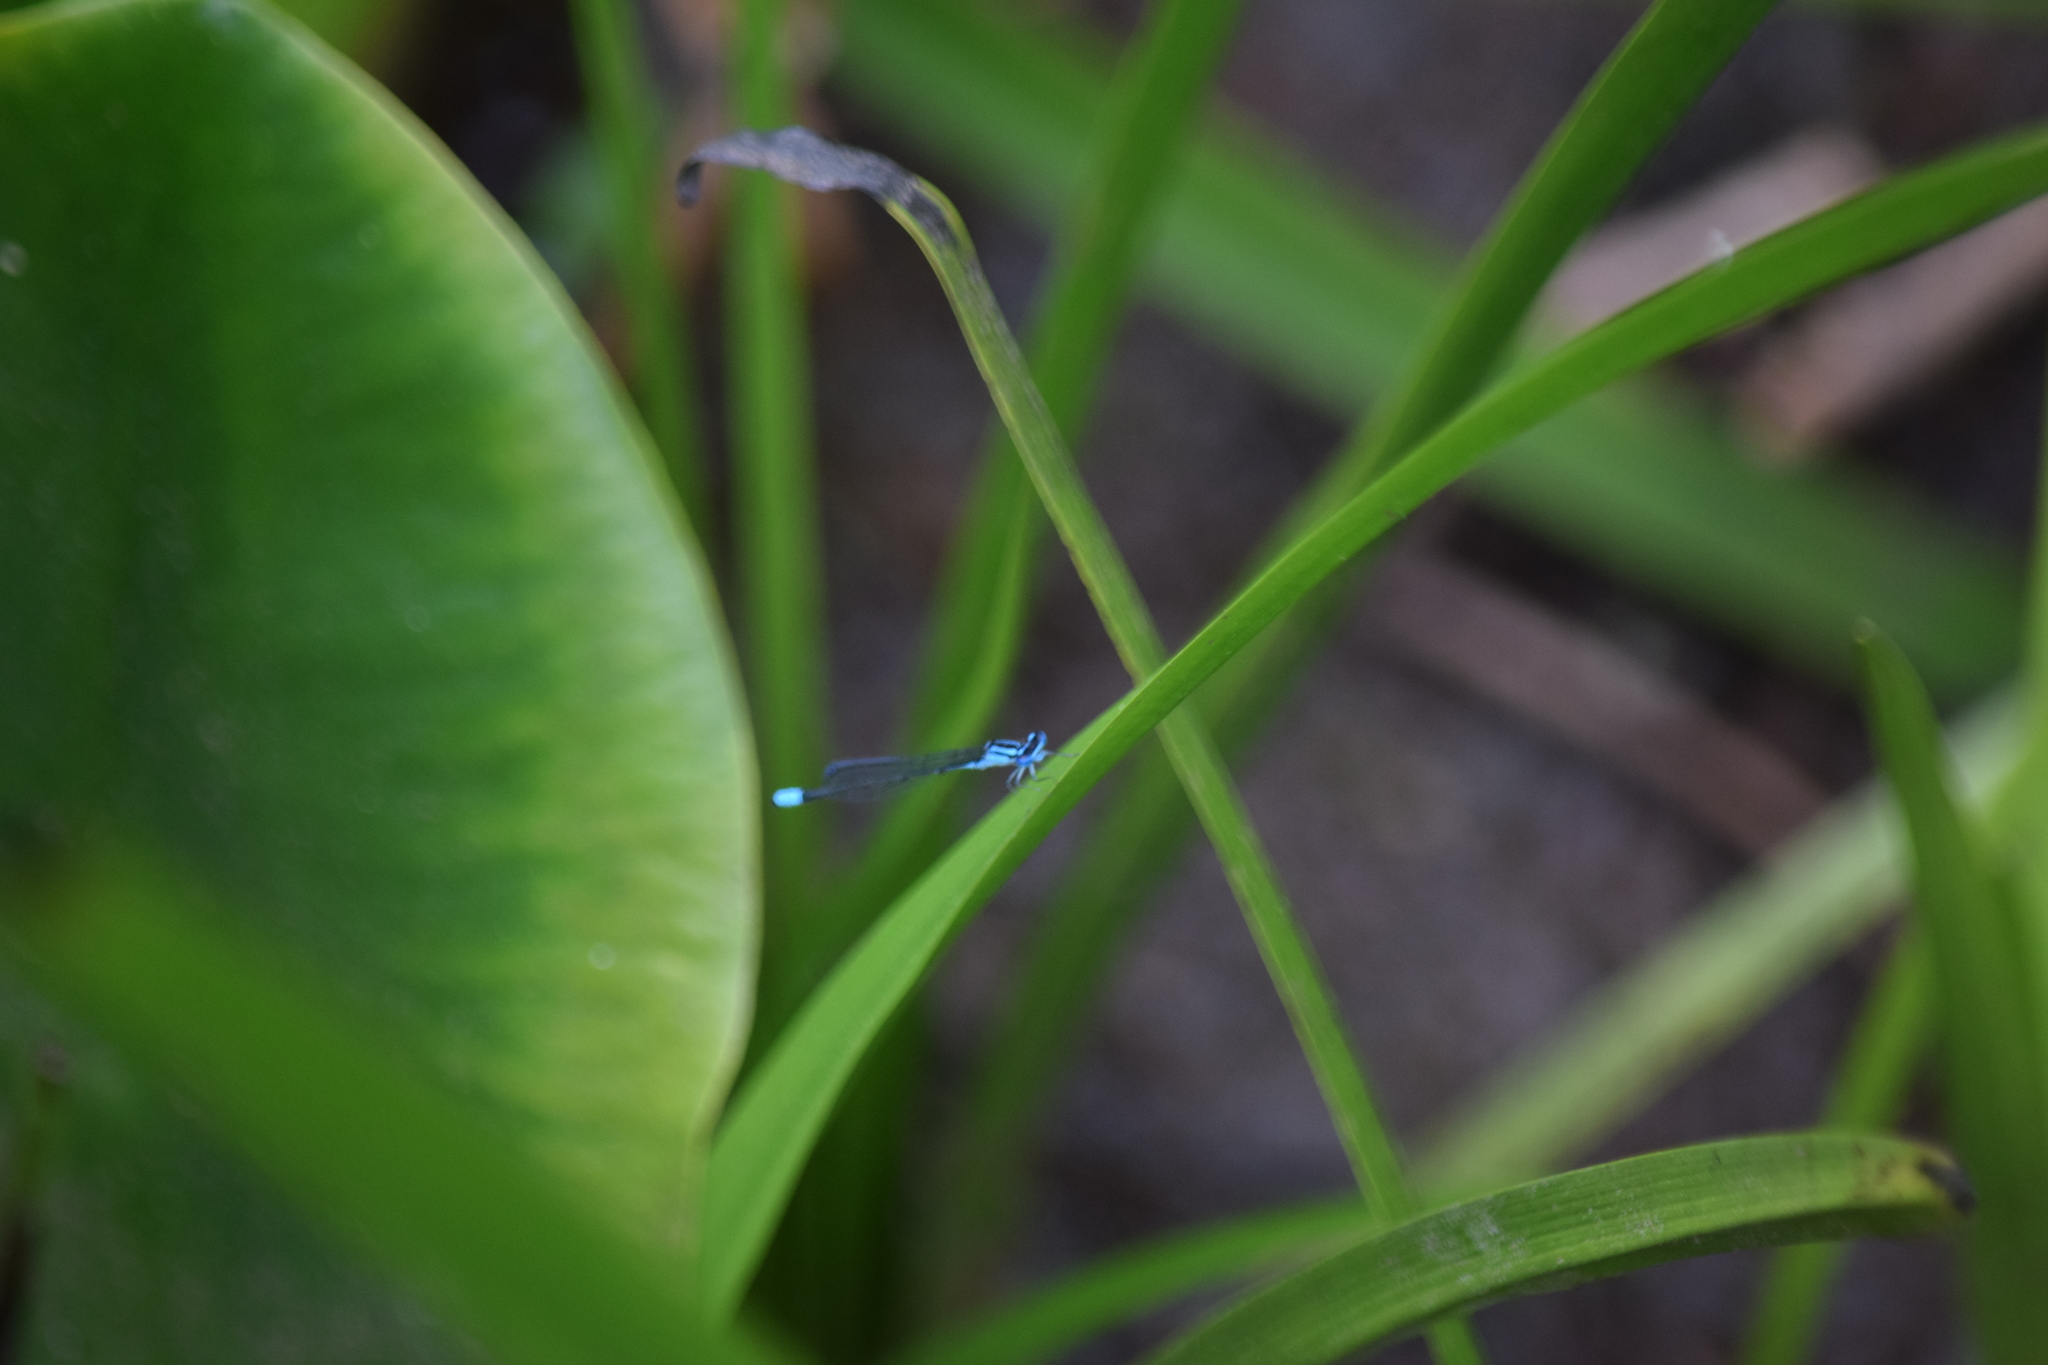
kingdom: Animalia
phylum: Arthropoda
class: Insecta
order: Odonata
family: Coenagrionidae
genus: Enallagma
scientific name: Enallagma divagans
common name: Turquoise bluet
